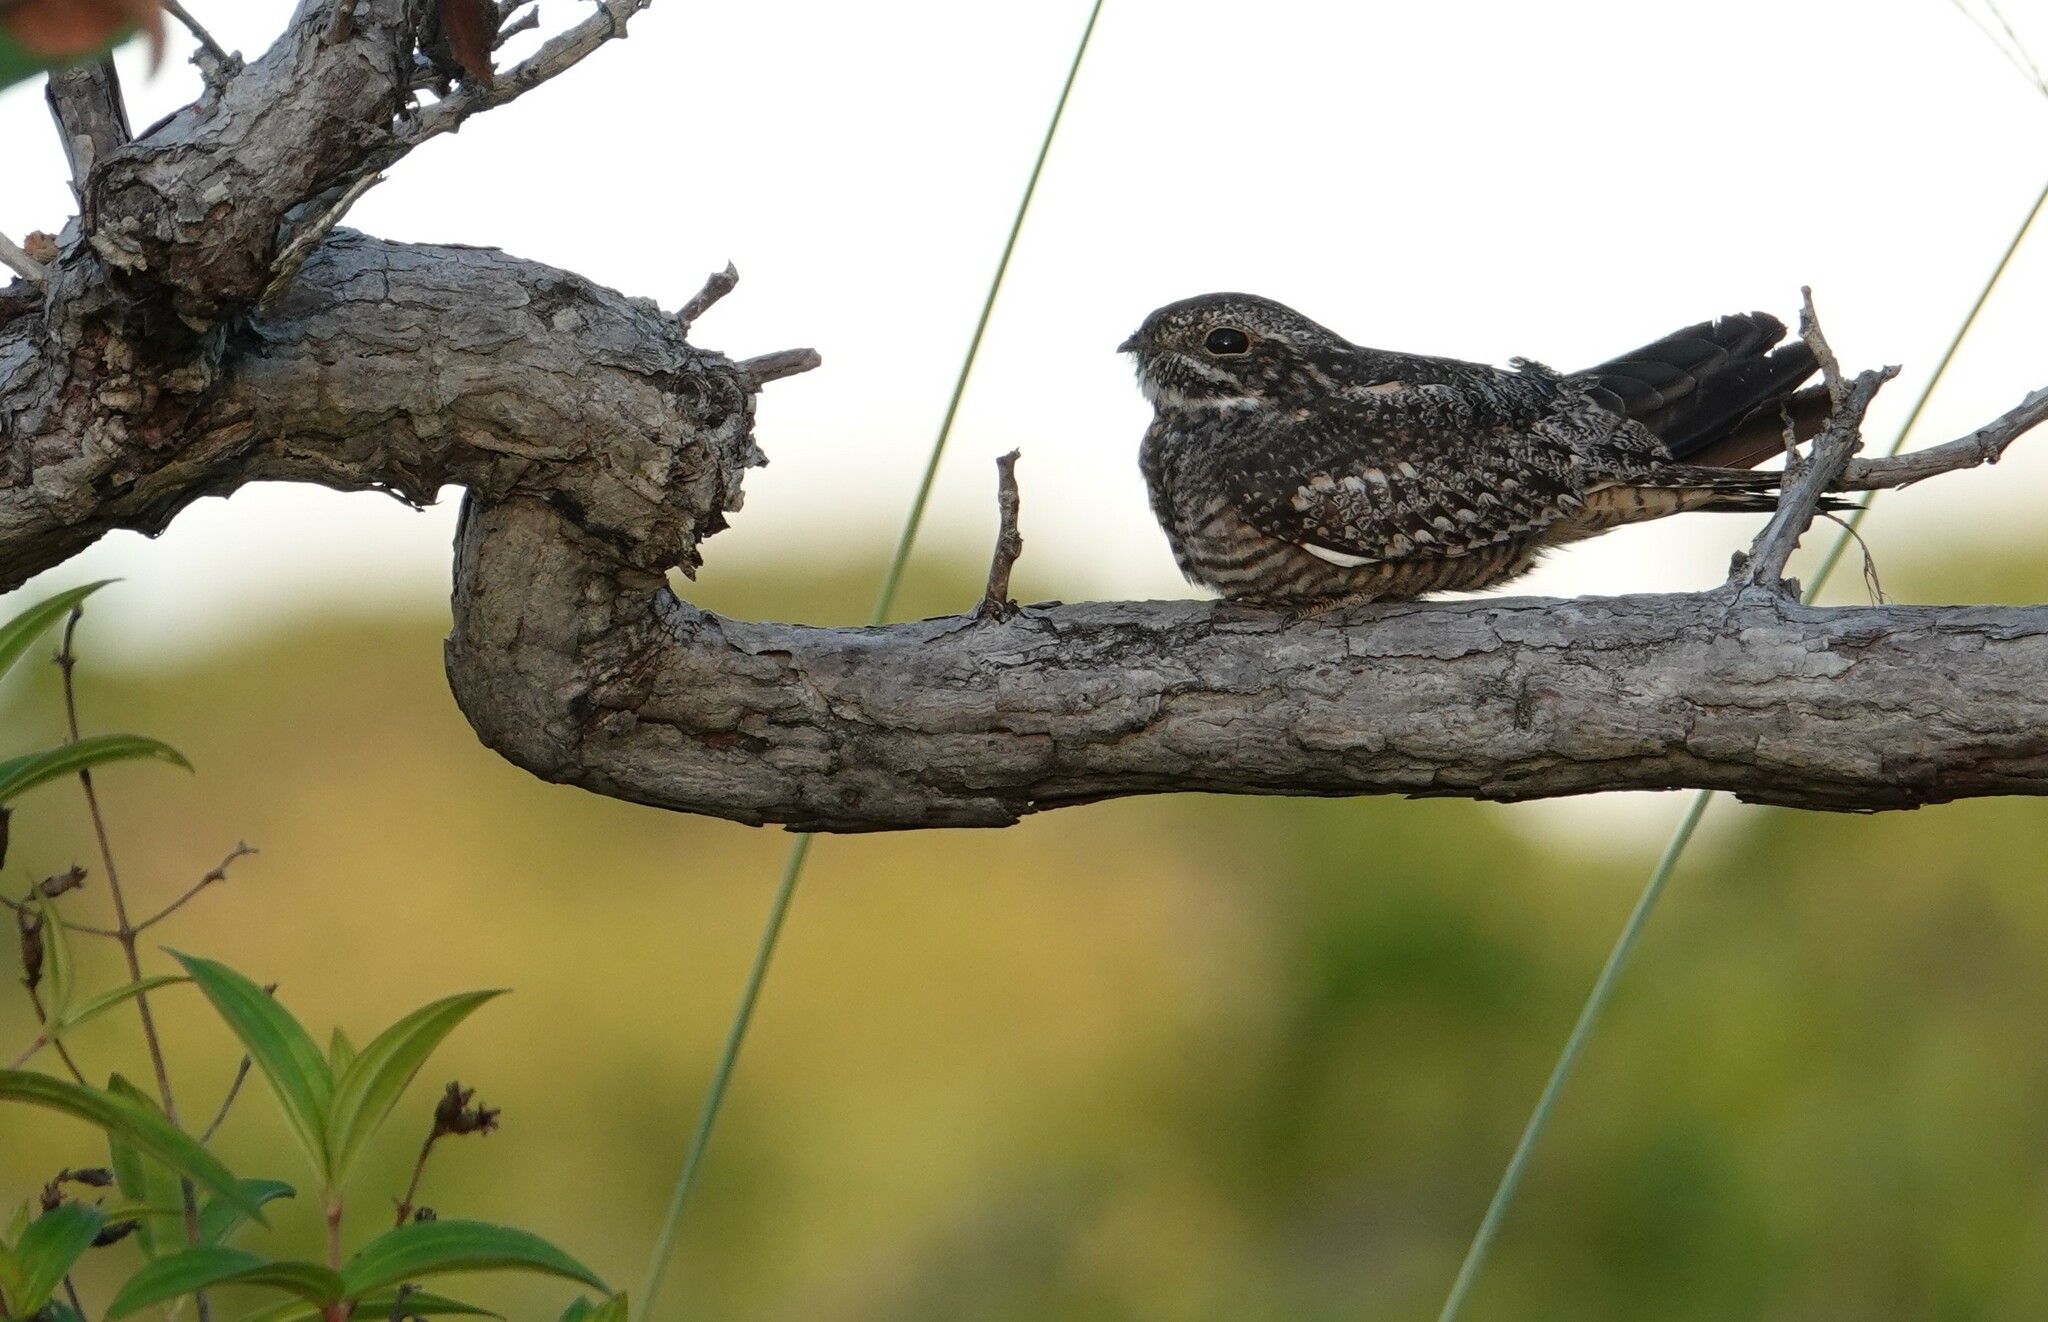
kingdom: Animalia
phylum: Chordata
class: Aves
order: Caprimulgiformes
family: Caprimulgidae
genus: Chordeiles
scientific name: Chordeiles acutipennis
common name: Lesser nighthawk
